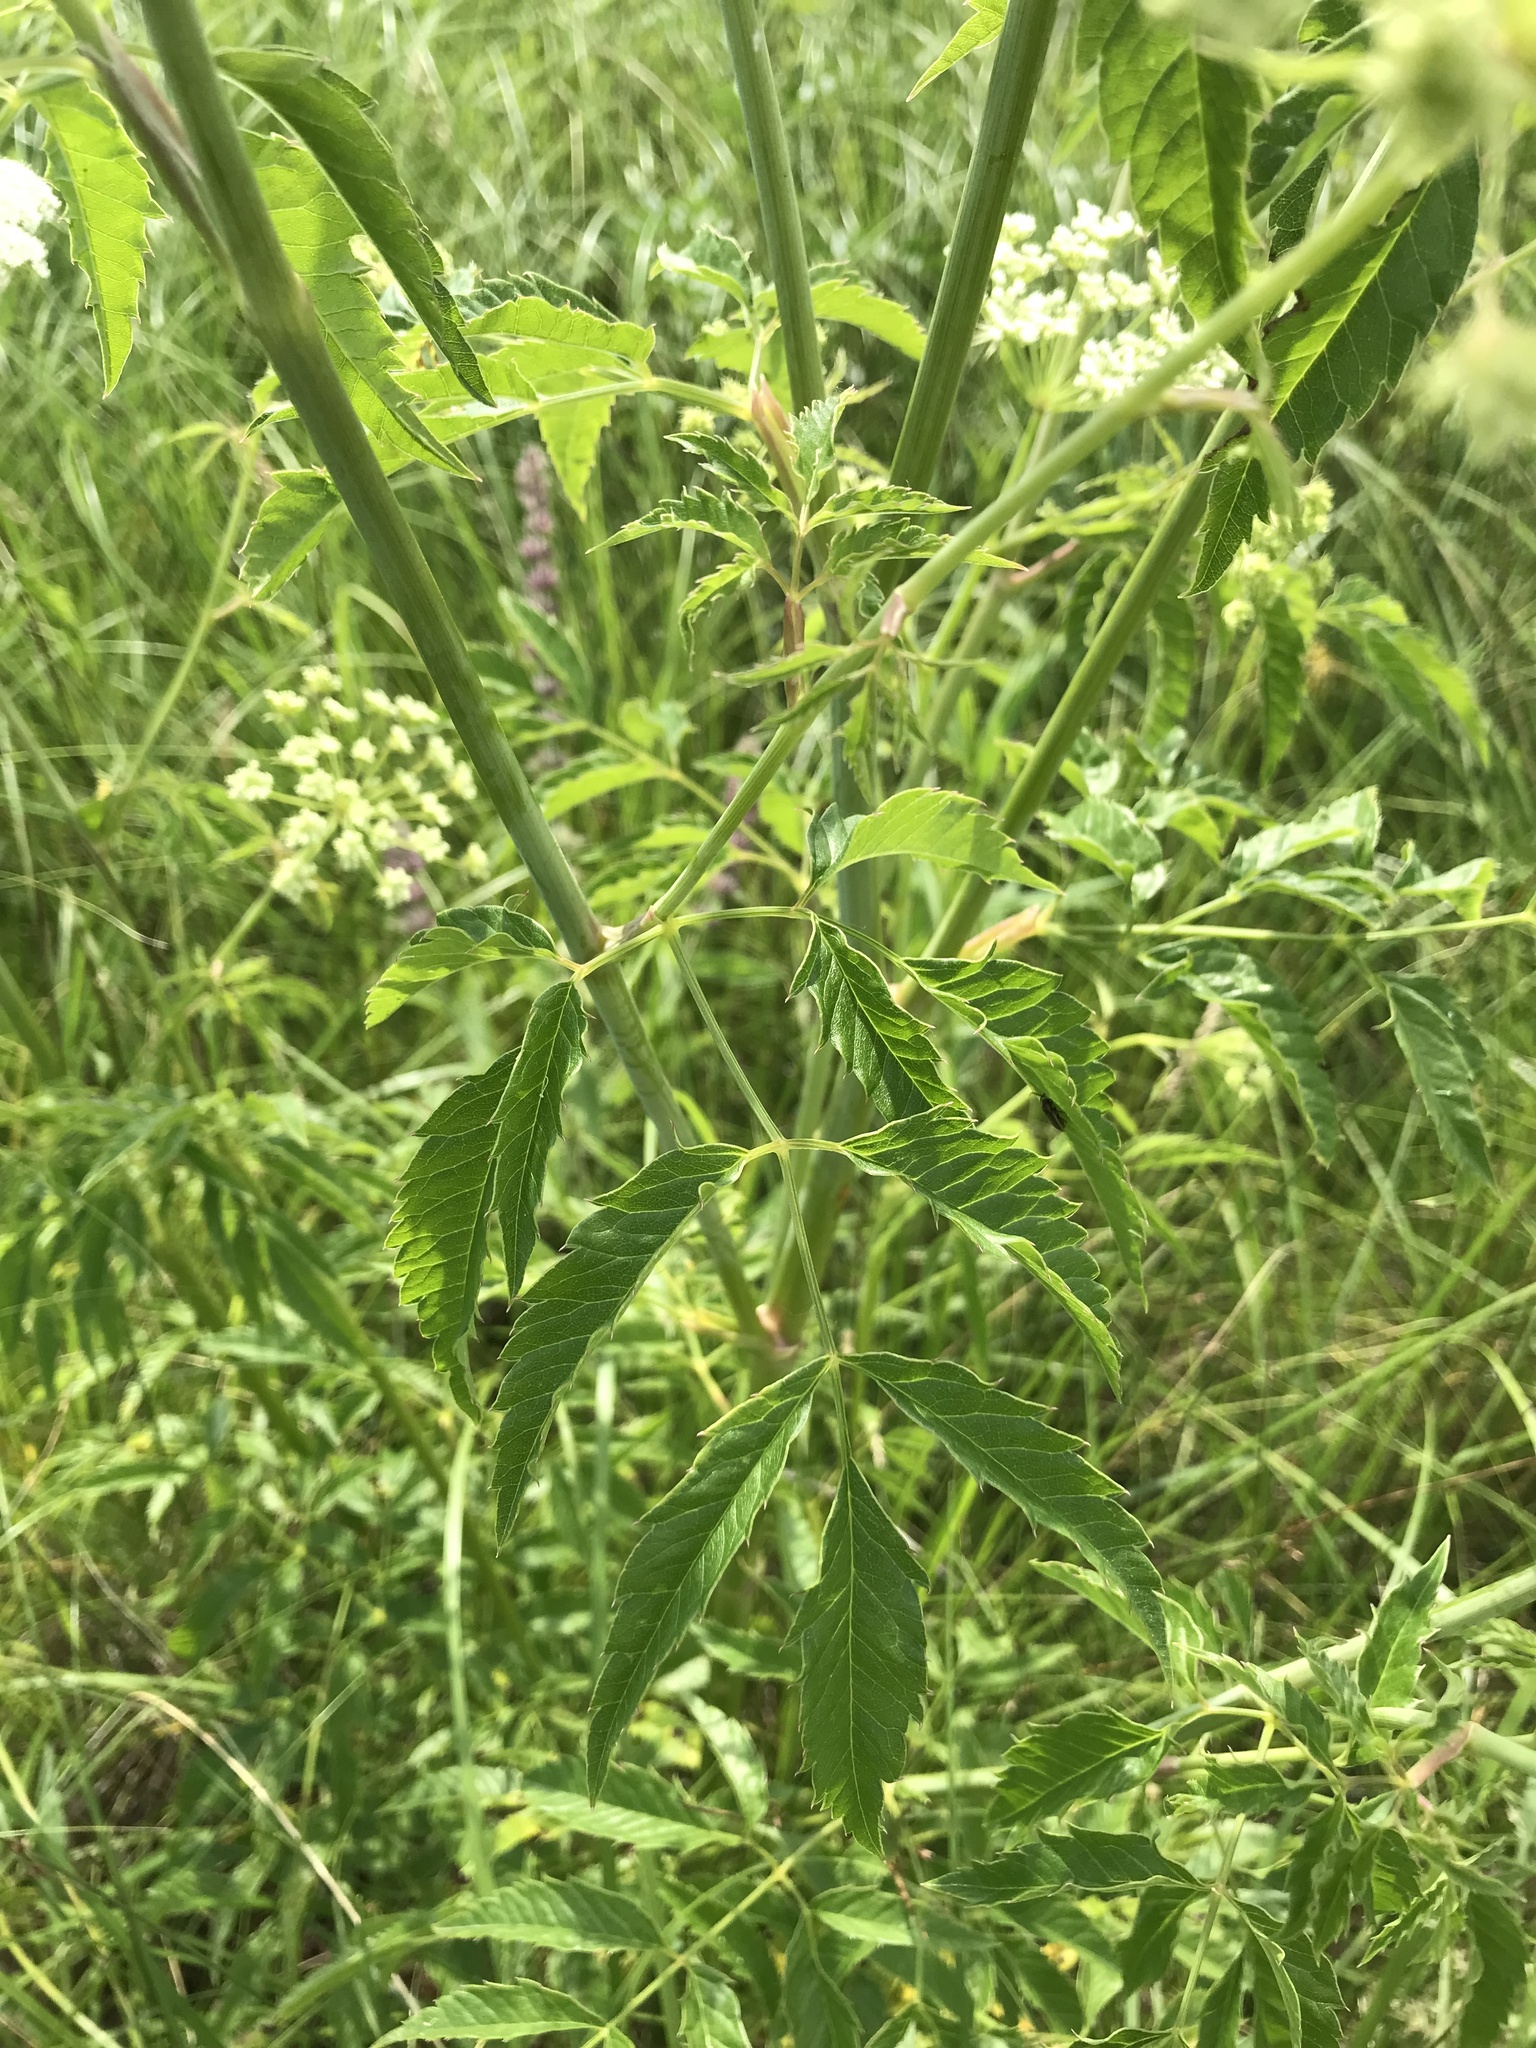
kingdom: Plantae
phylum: Tracheophyta
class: Magnoliopsida
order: Apiales
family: Apiaceae
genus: Cicuta
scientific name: Cicuta maculata
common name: Spotted cowbane
